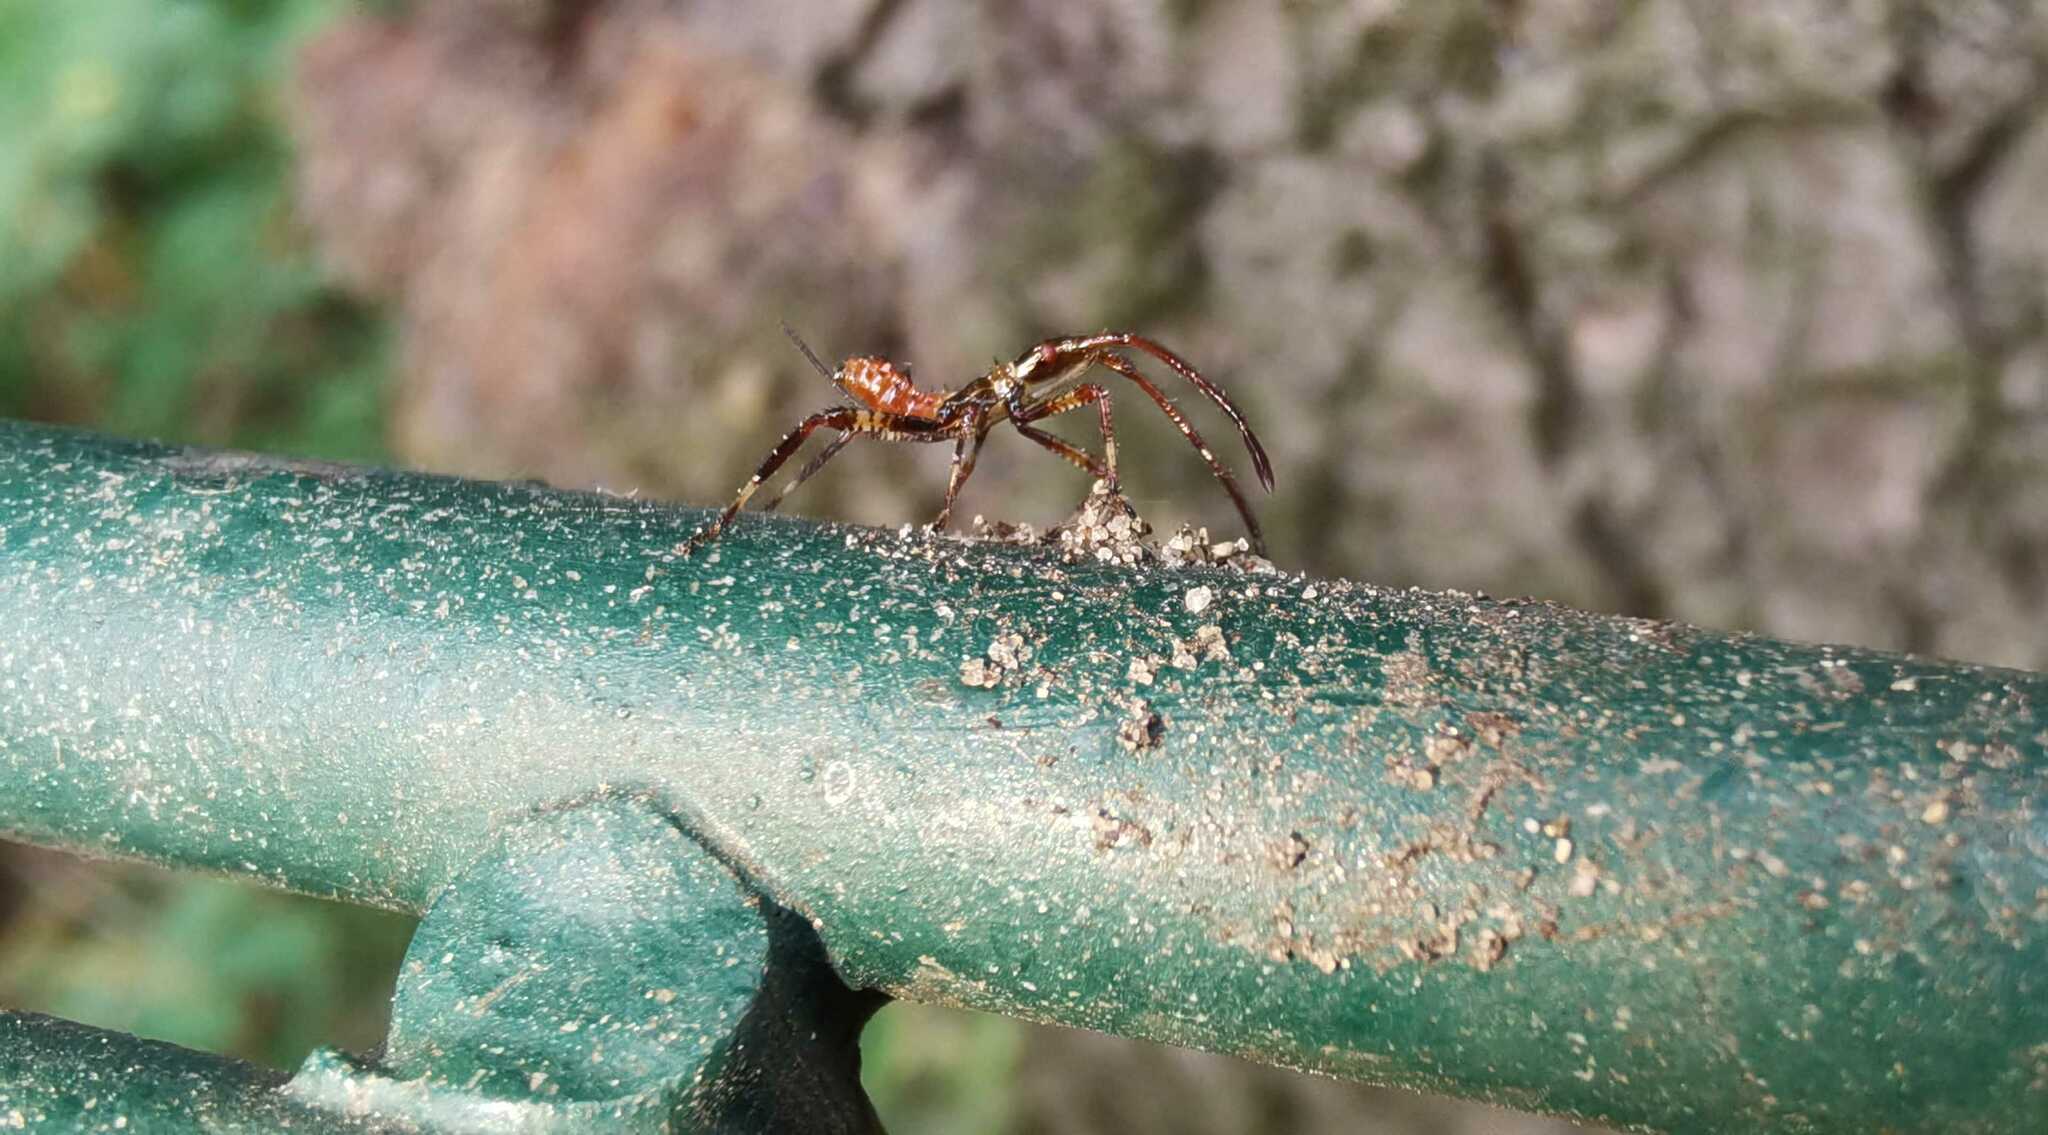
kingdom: Animalia
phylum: Arthropoda
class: Insecta
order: Hemiptera
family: Coreidae
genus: Leptoglossus
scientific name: Leptoglossus occidentalis
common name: Western conifer-seed bug
